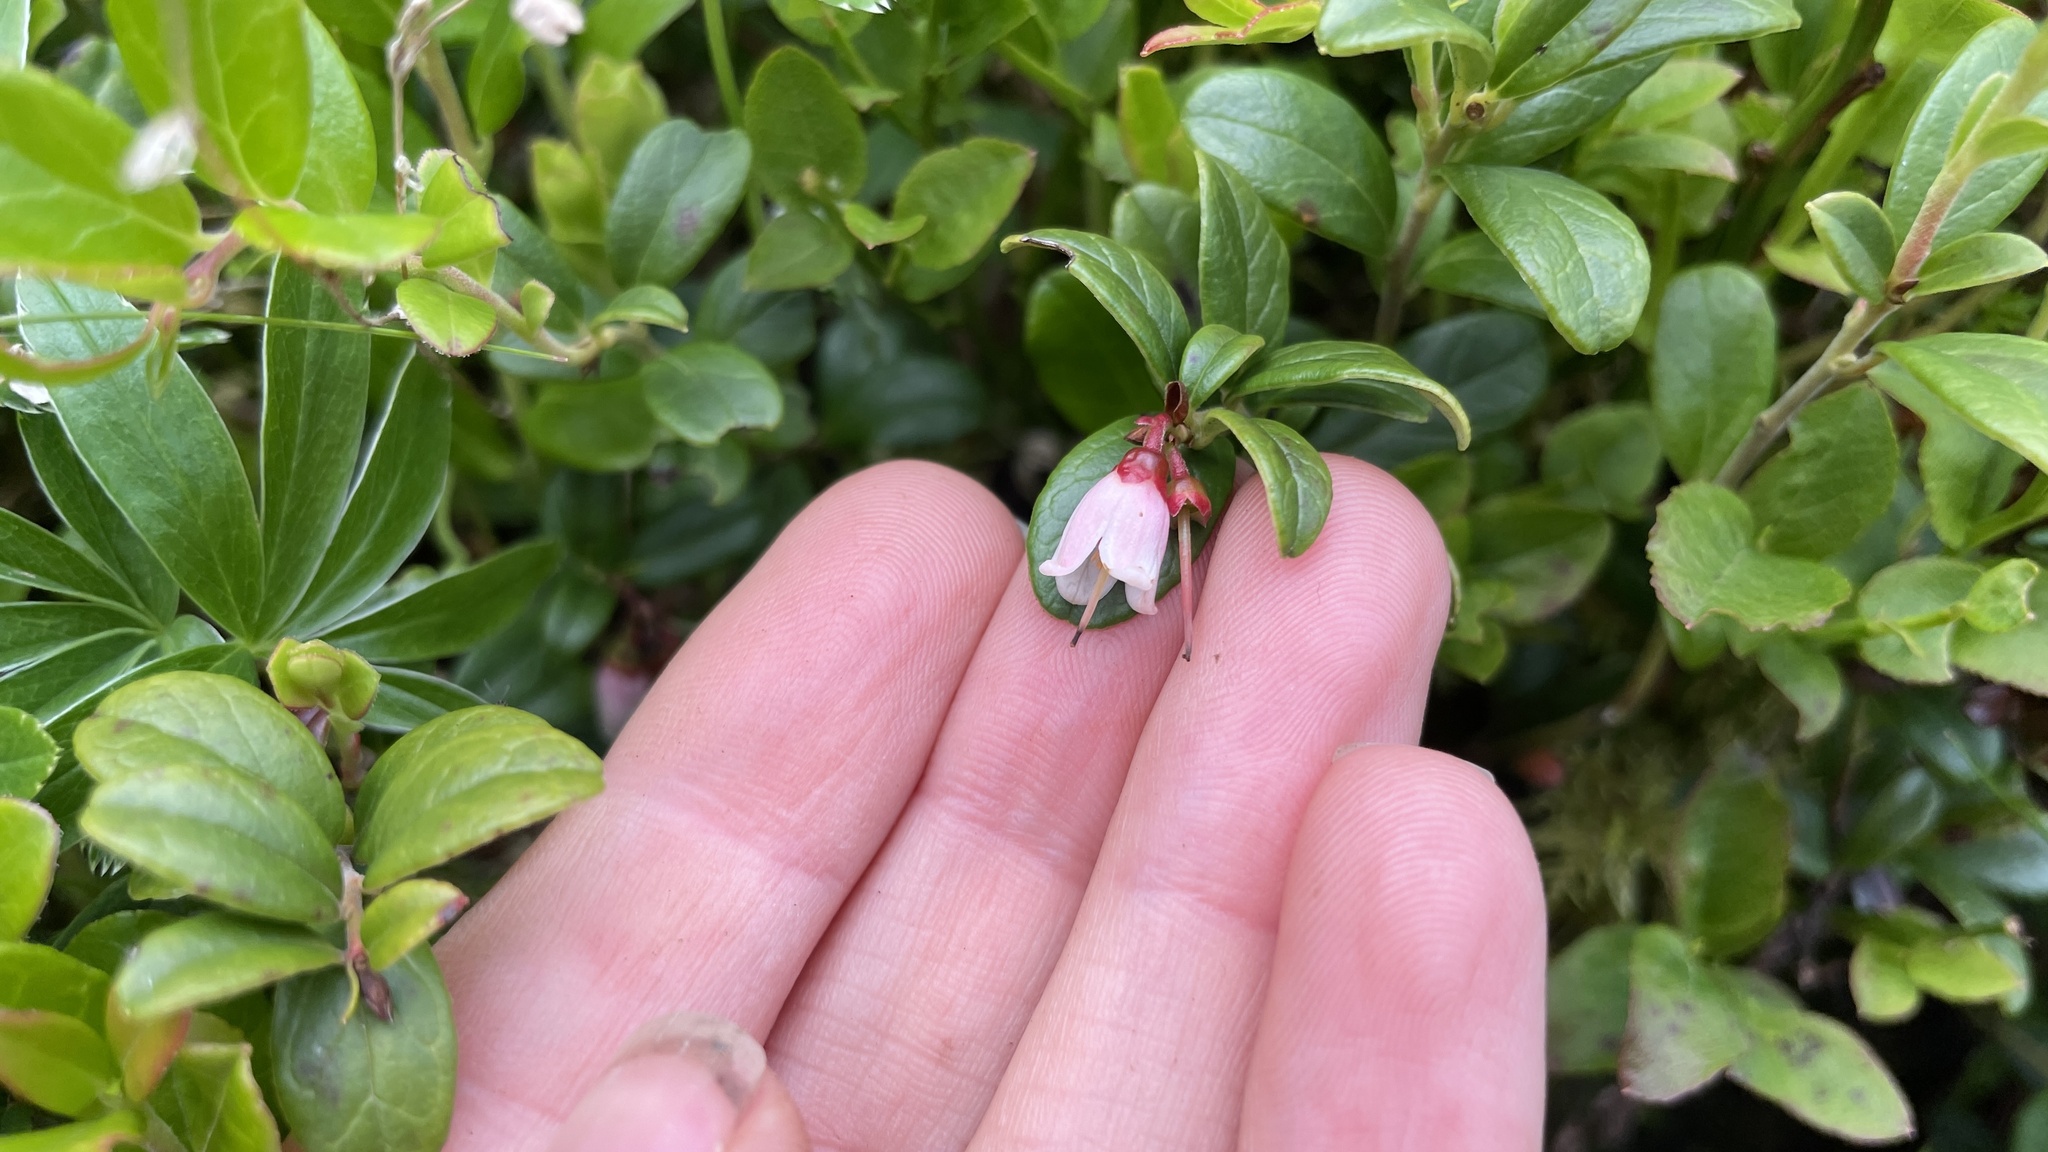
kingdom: Plantae
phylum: Tracheophyta
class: Magnoliopsida
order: Ericales
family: Ericaceae
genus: Vaccinium
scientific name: Vaccinium vitis-idaea
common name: Cowberry
